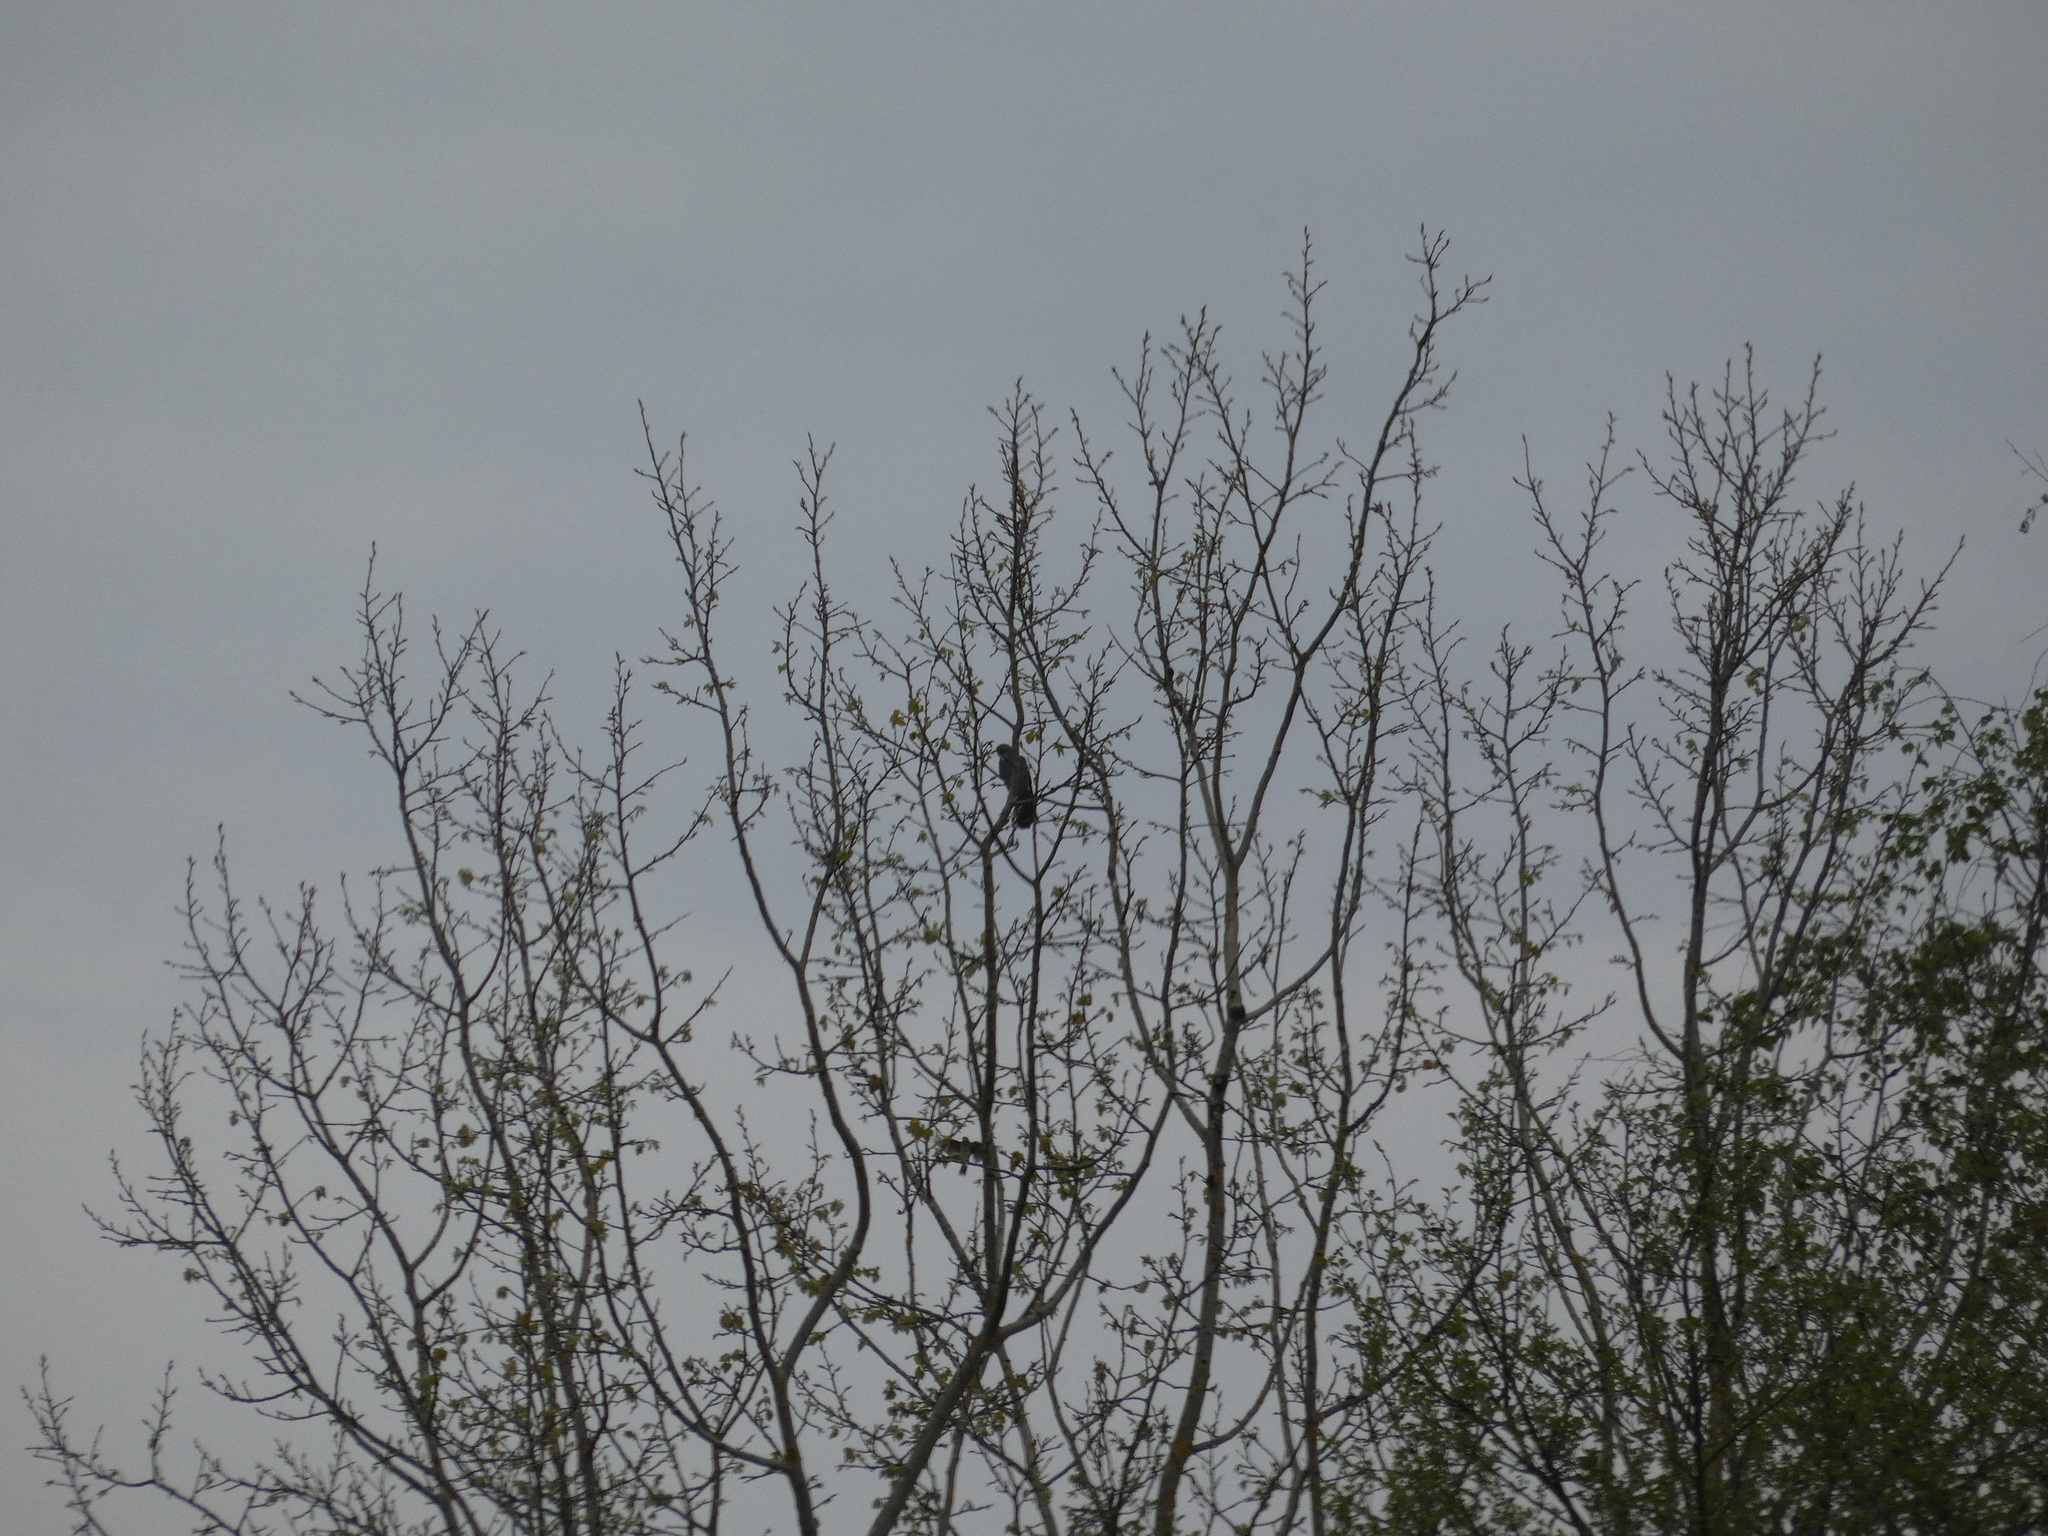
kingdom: Animalia
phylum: Chordata
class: Aves
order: Cuculiformes
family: Cuculidae
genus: Cuculus
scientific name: Cuculus canorus
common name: Common cuckoo
